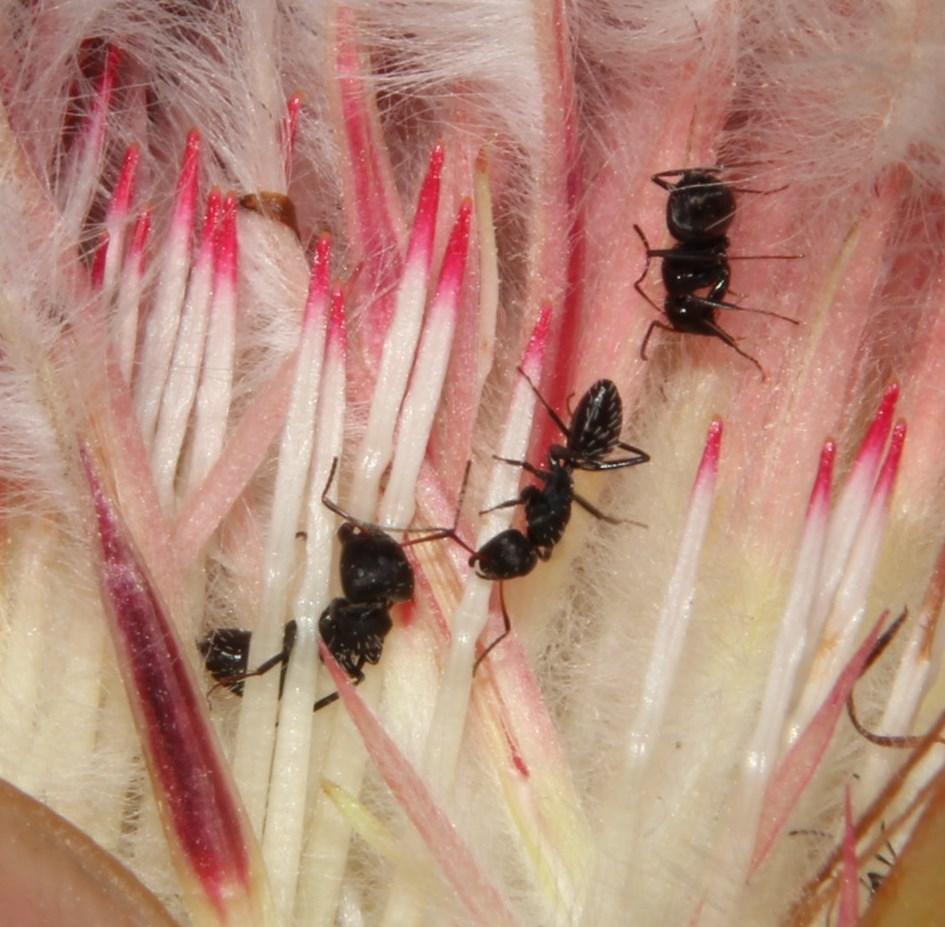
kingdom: Animalia
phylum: Arthropoda
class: Insecta
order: Hymenoptera
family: Formicidae
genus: Camponotus
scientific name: Camponotus niveosetosus
